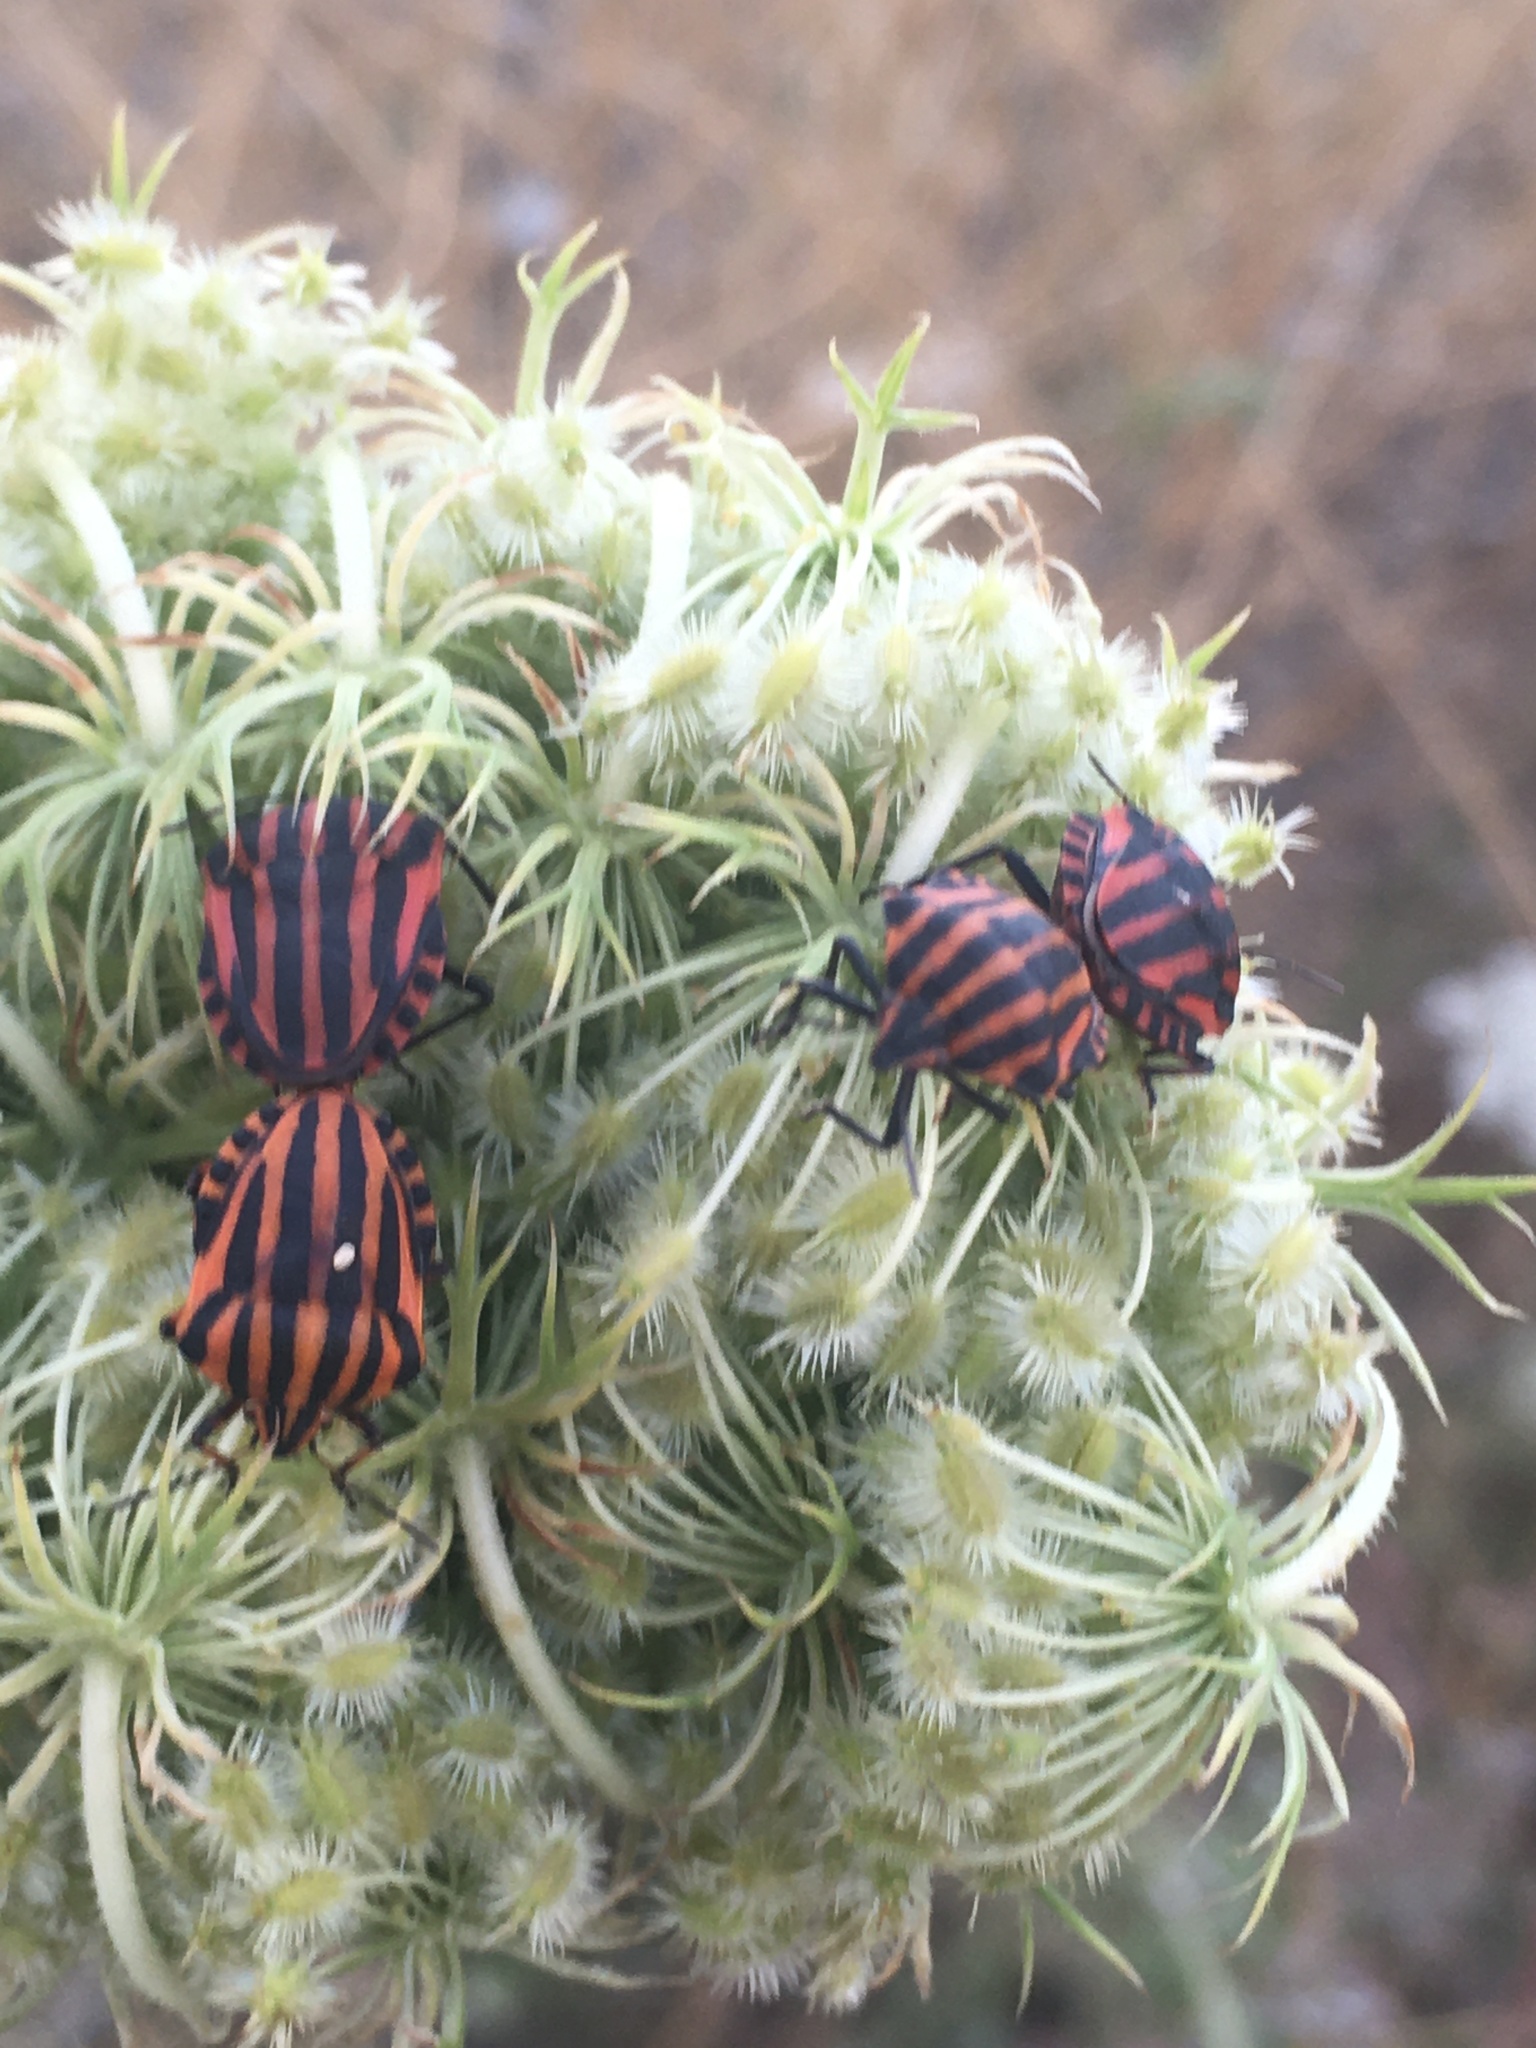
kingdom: Animalia
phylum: Arthropoda
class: Insecta
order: Hemiptera
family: Pentatomidae
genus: Graphosoma
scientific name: Graphosoma italicum
